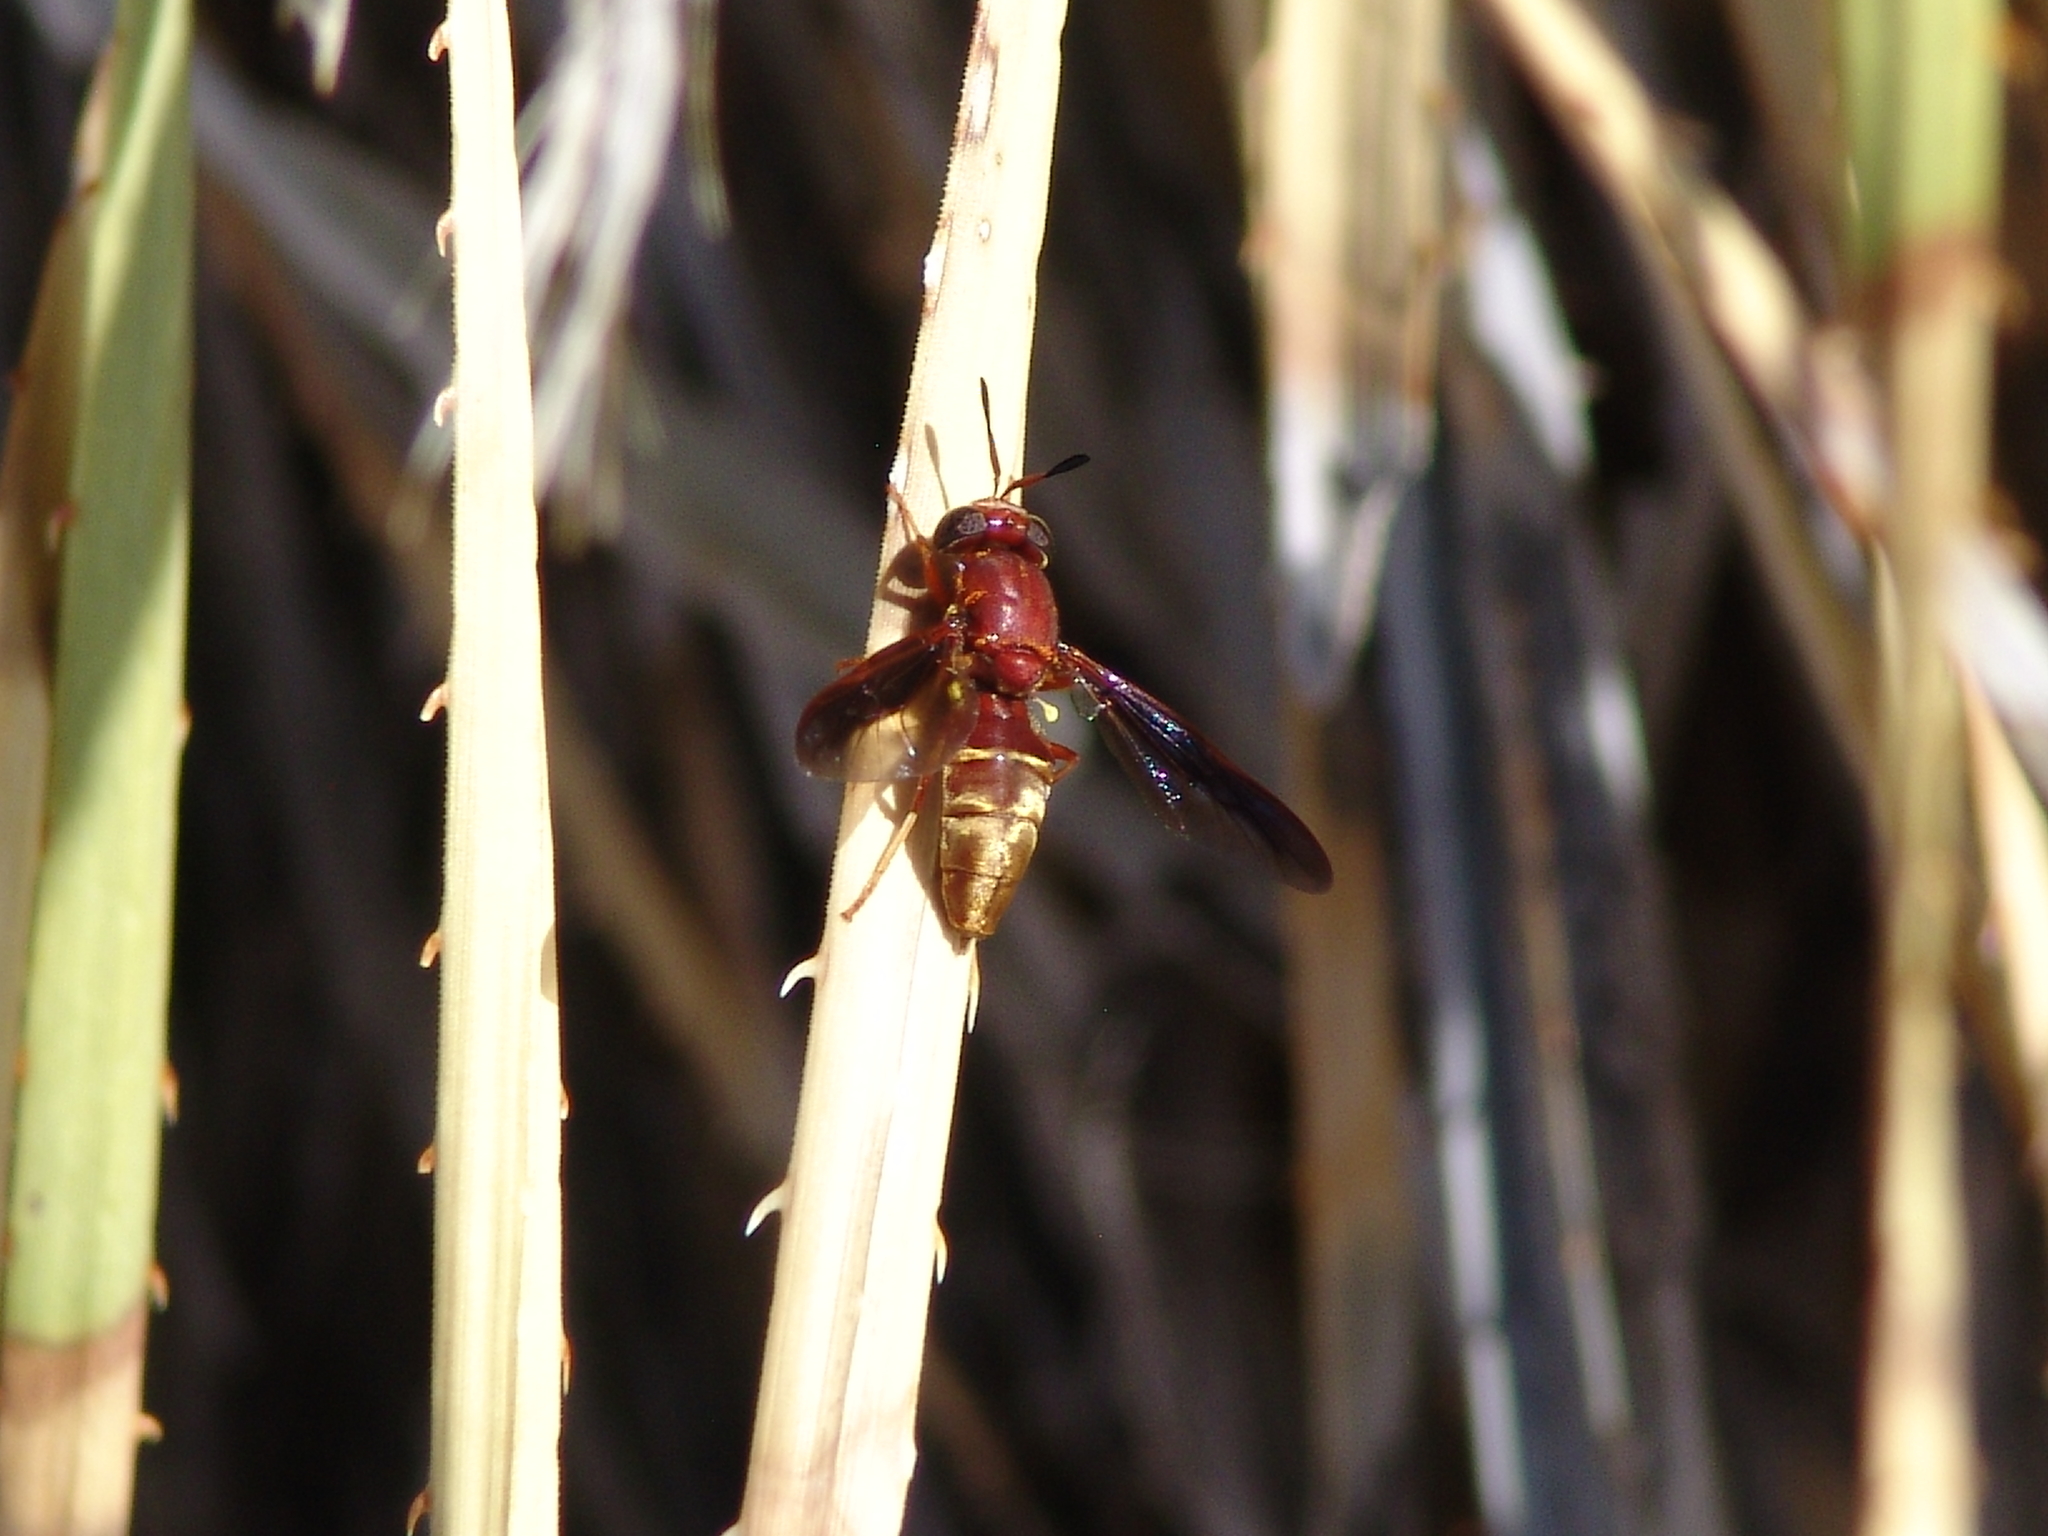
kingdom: Animalia
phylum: Arthropoda
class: Insecta
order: Diptera
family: Stratiomyidae
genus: Hermetia
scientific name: Hermetia comstocki
